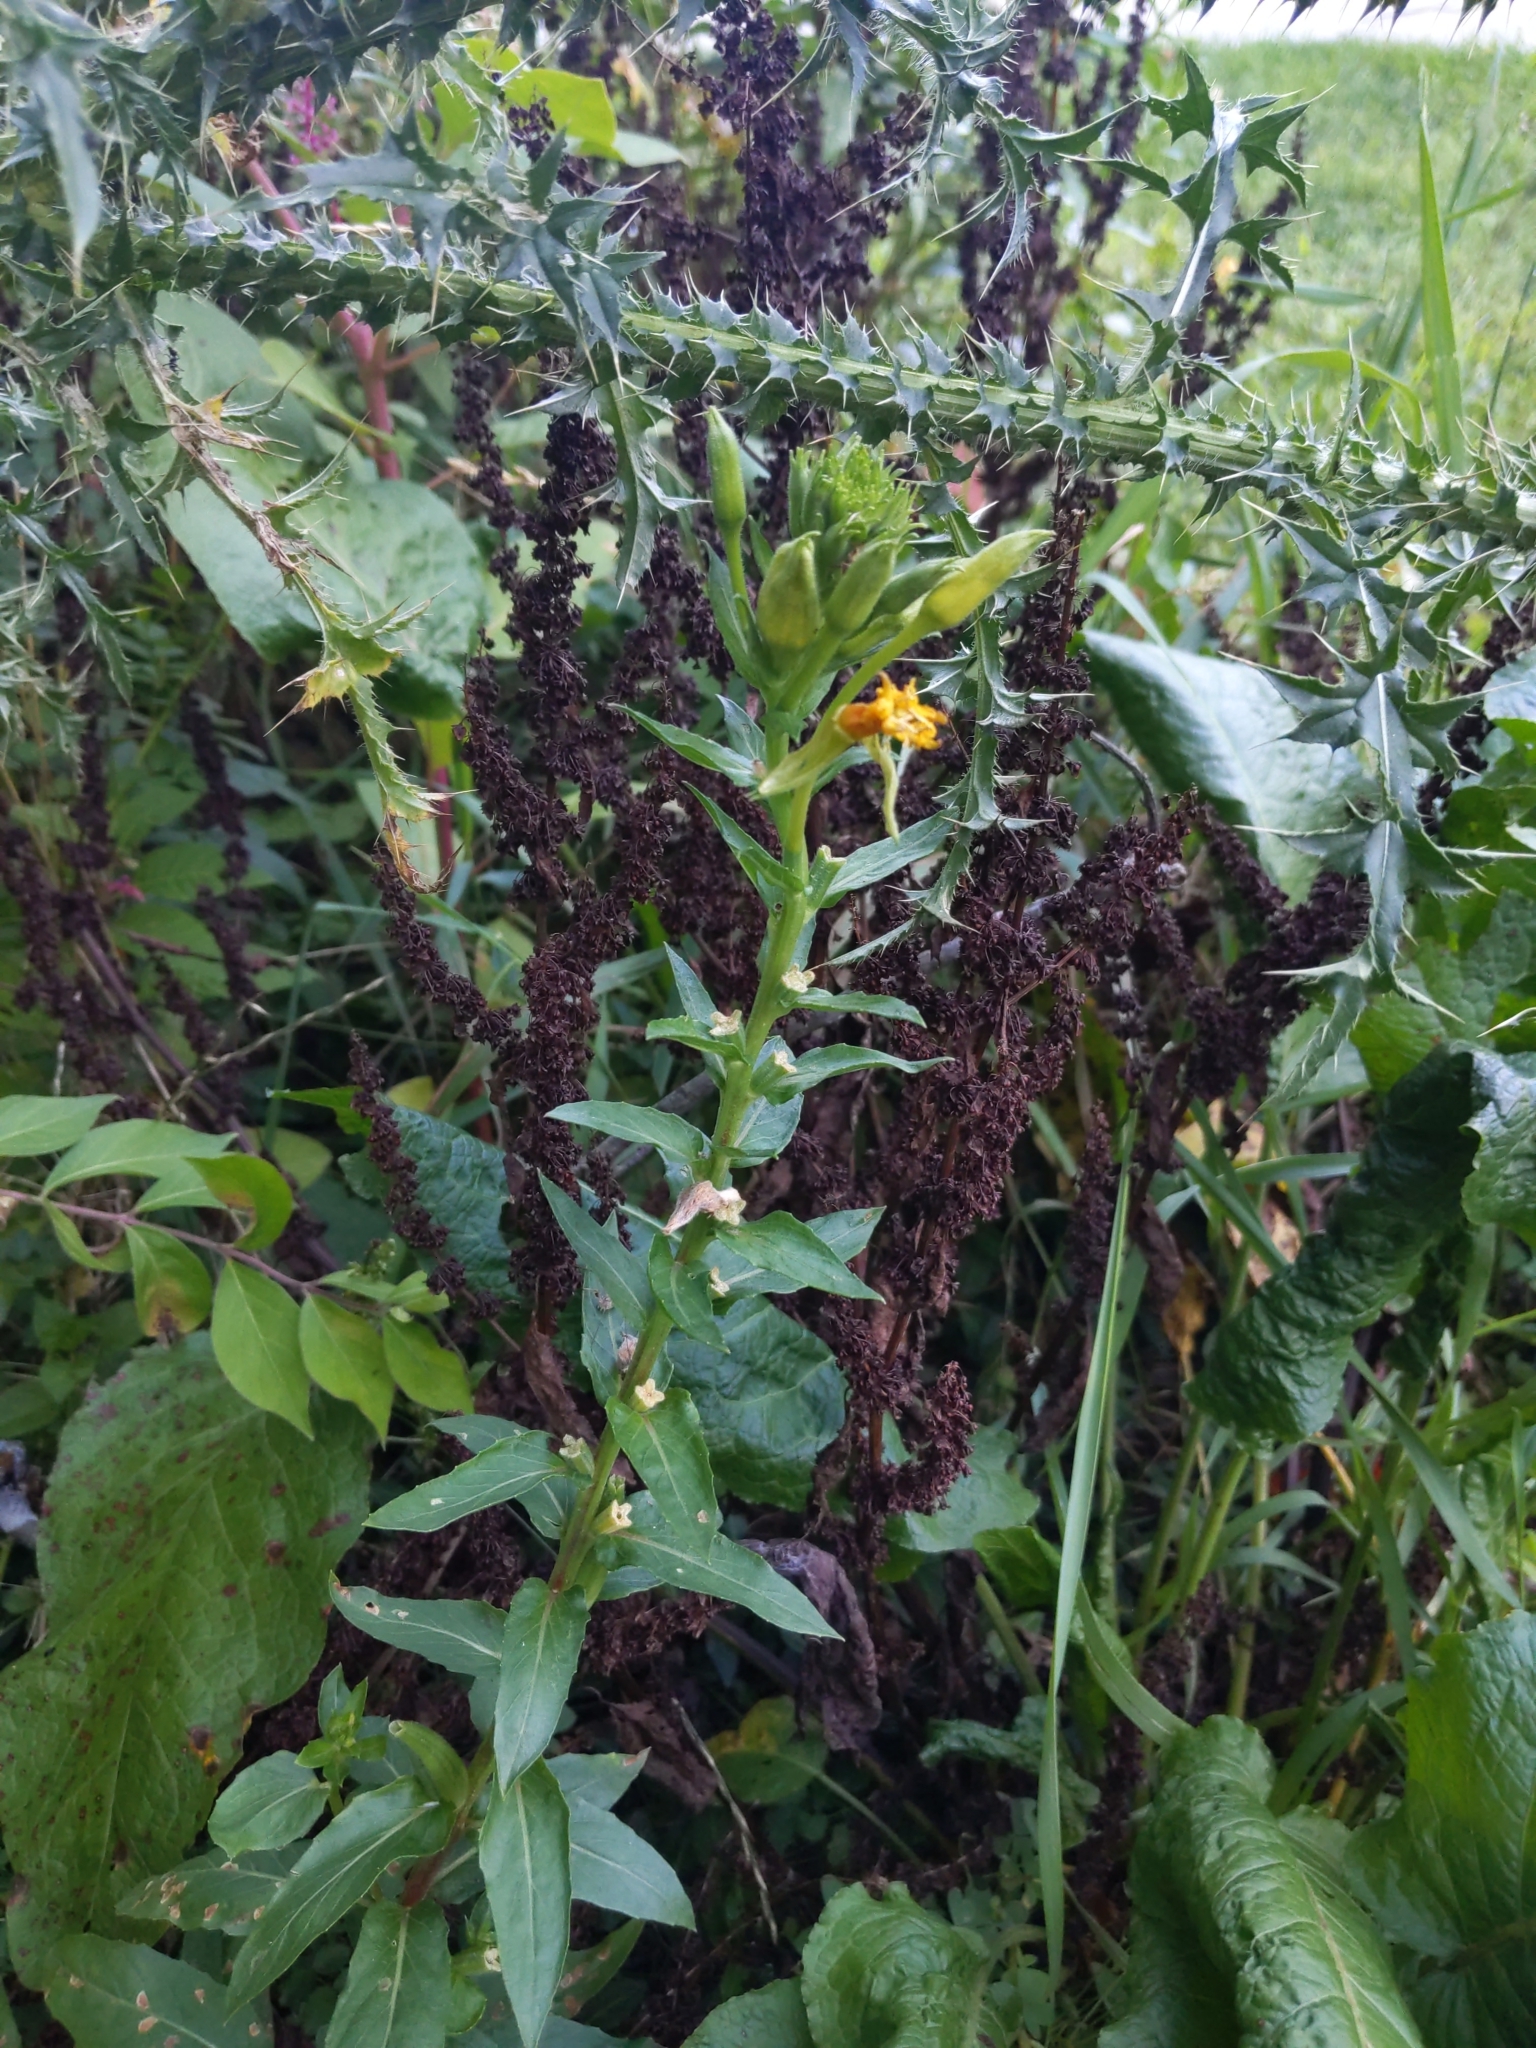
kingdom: Plantae
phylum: Tracheophyta
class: Magnoliopsida
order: Myrtales
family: Onagraceae
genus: Oenothera
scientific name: Oenothera biennis
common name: Common evening-primrose
